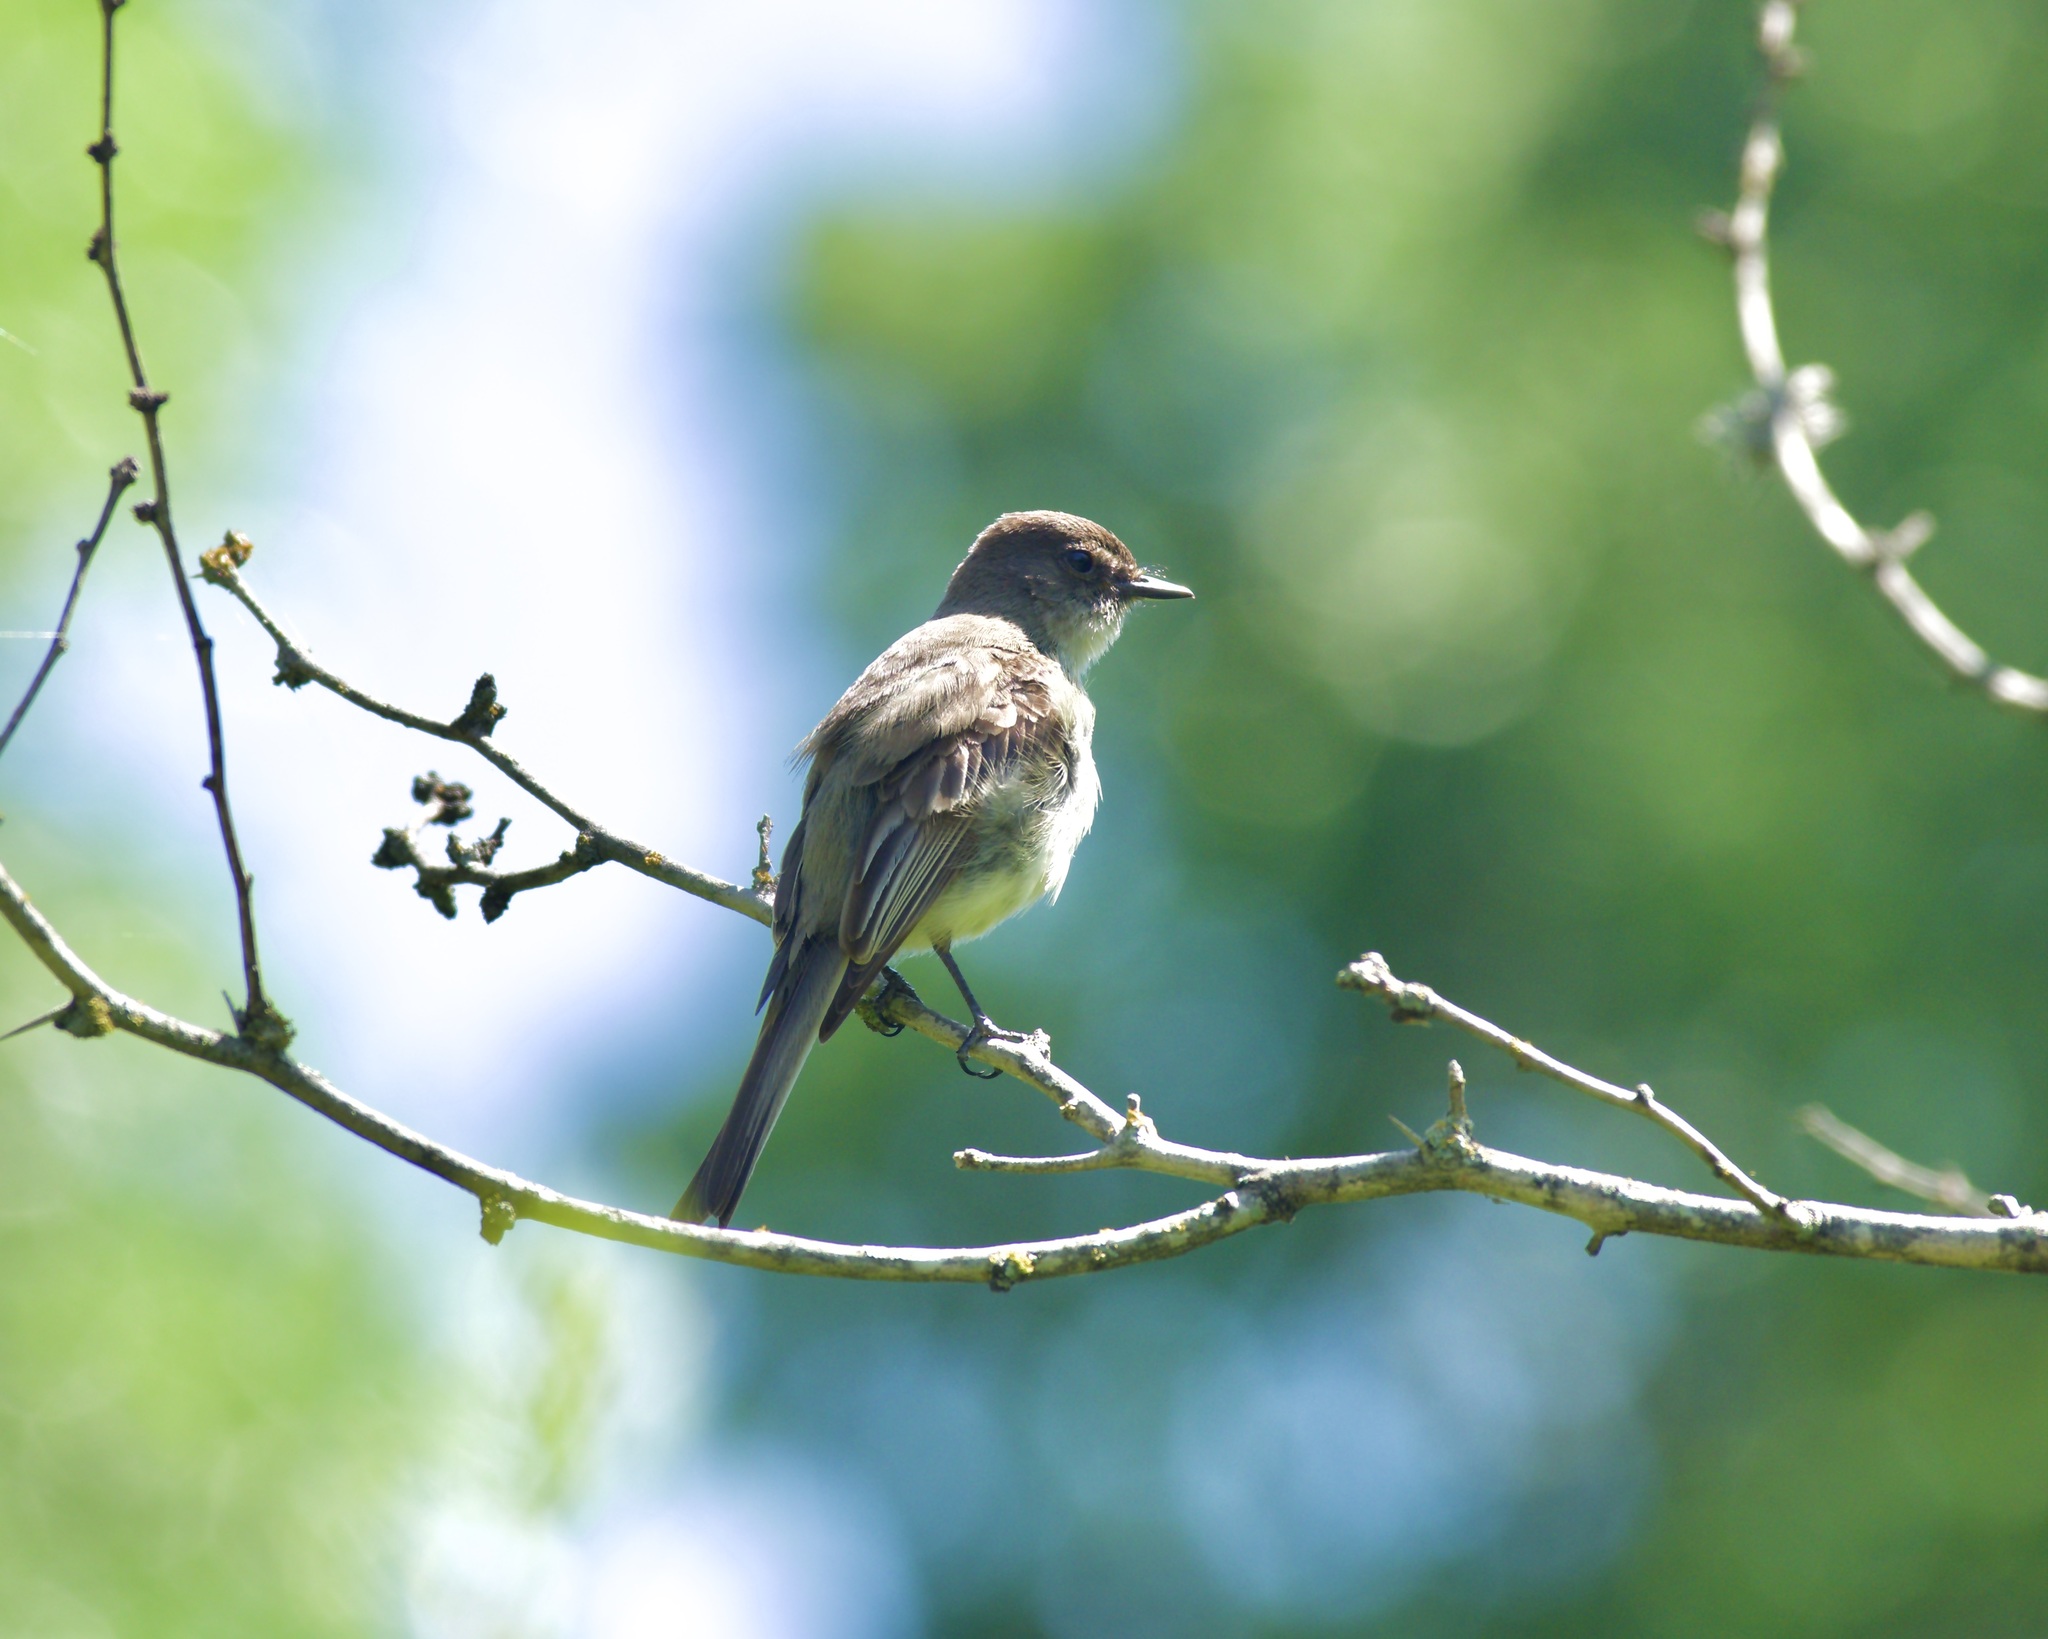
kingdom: Animalia
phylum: Chordata
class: Aves
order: Passeriformes
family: Tyrannidae
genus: Sayornis
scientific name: Sayornis phoebe
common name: Eastern phoebe
